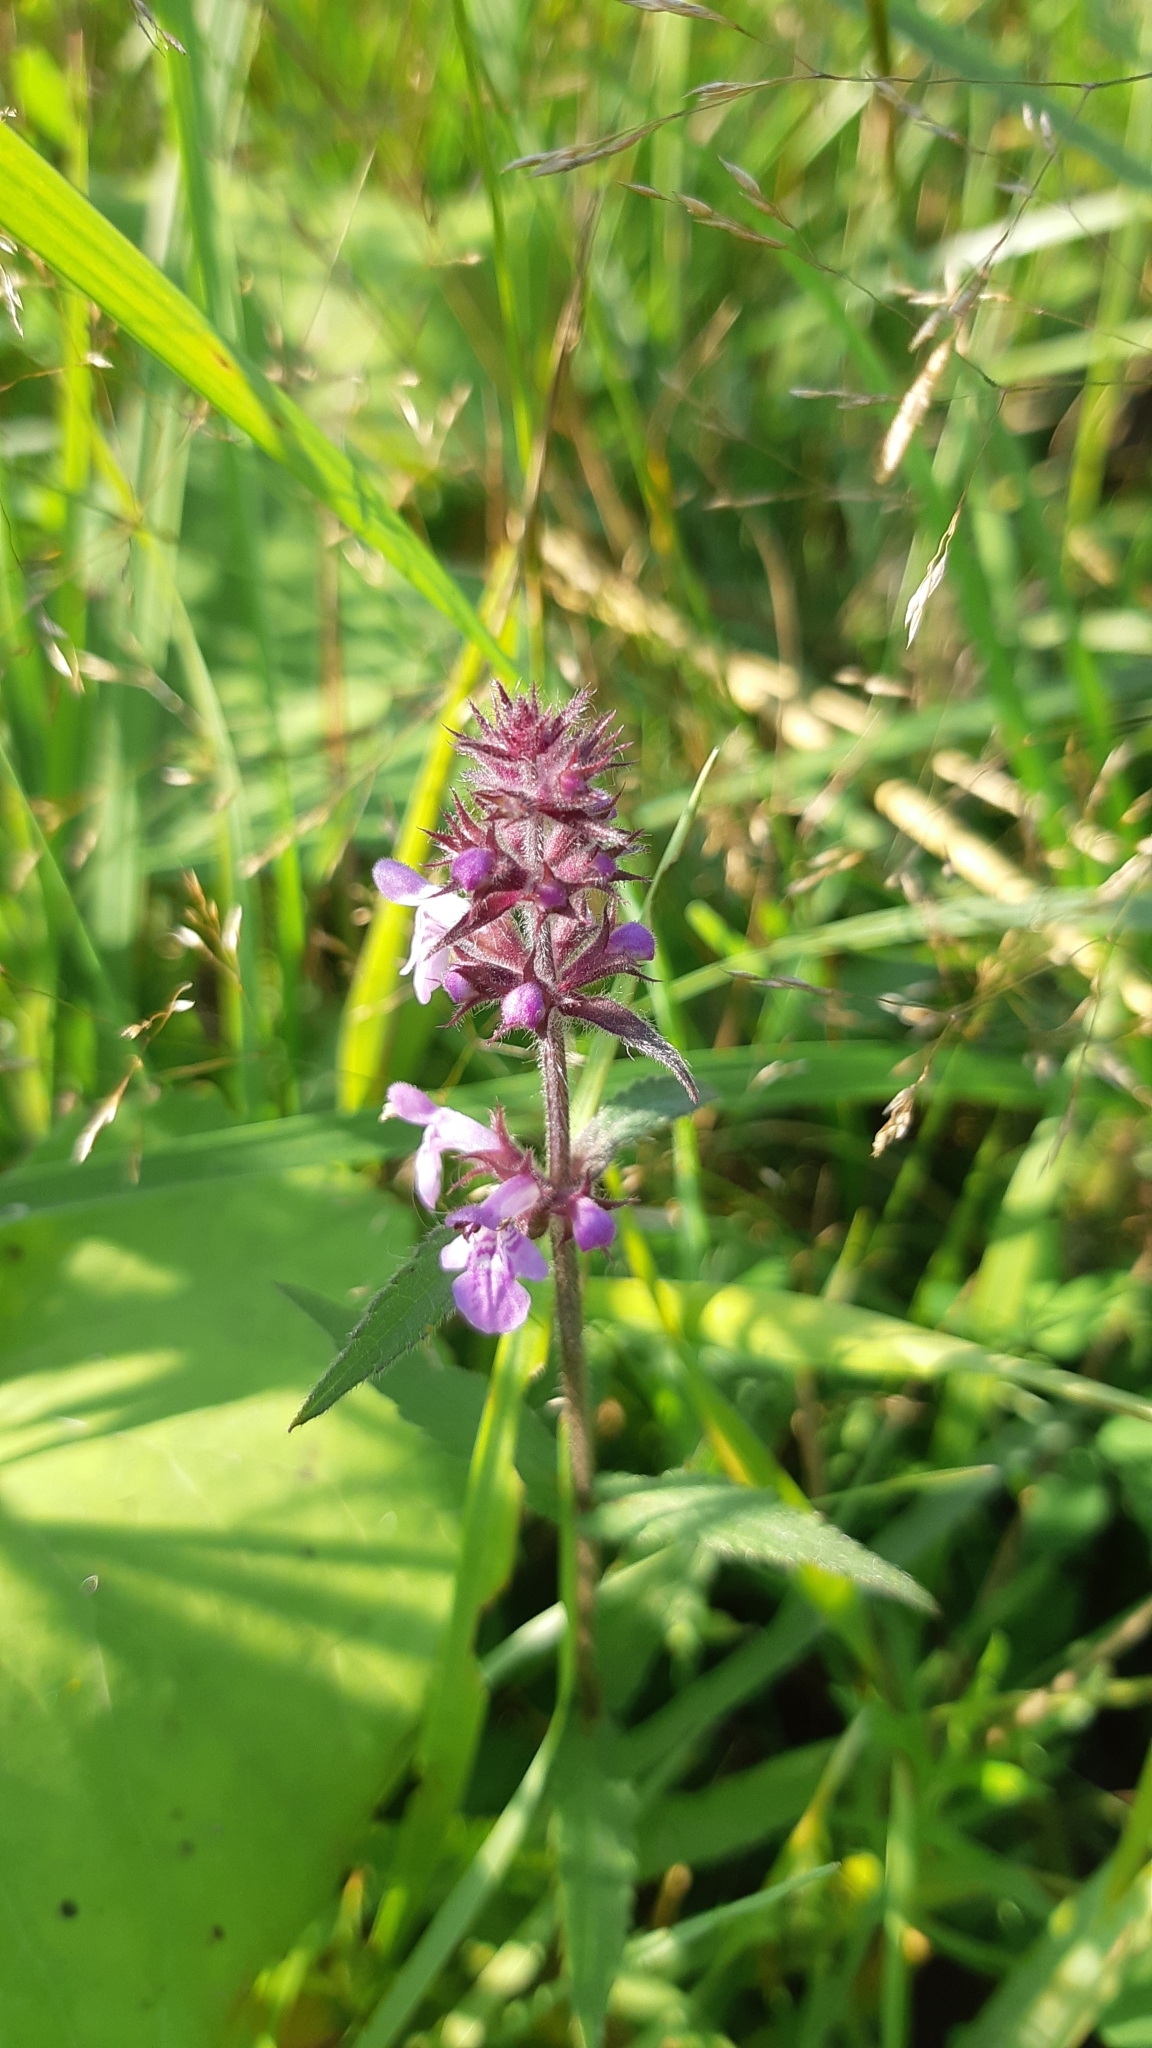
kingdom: Plantae
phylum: Tracheophyta
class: Magnoliopsida
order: Lamiales
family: Lamiaceae
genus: Stachys
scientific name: Stachys palustris
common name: Marsh woundwort
